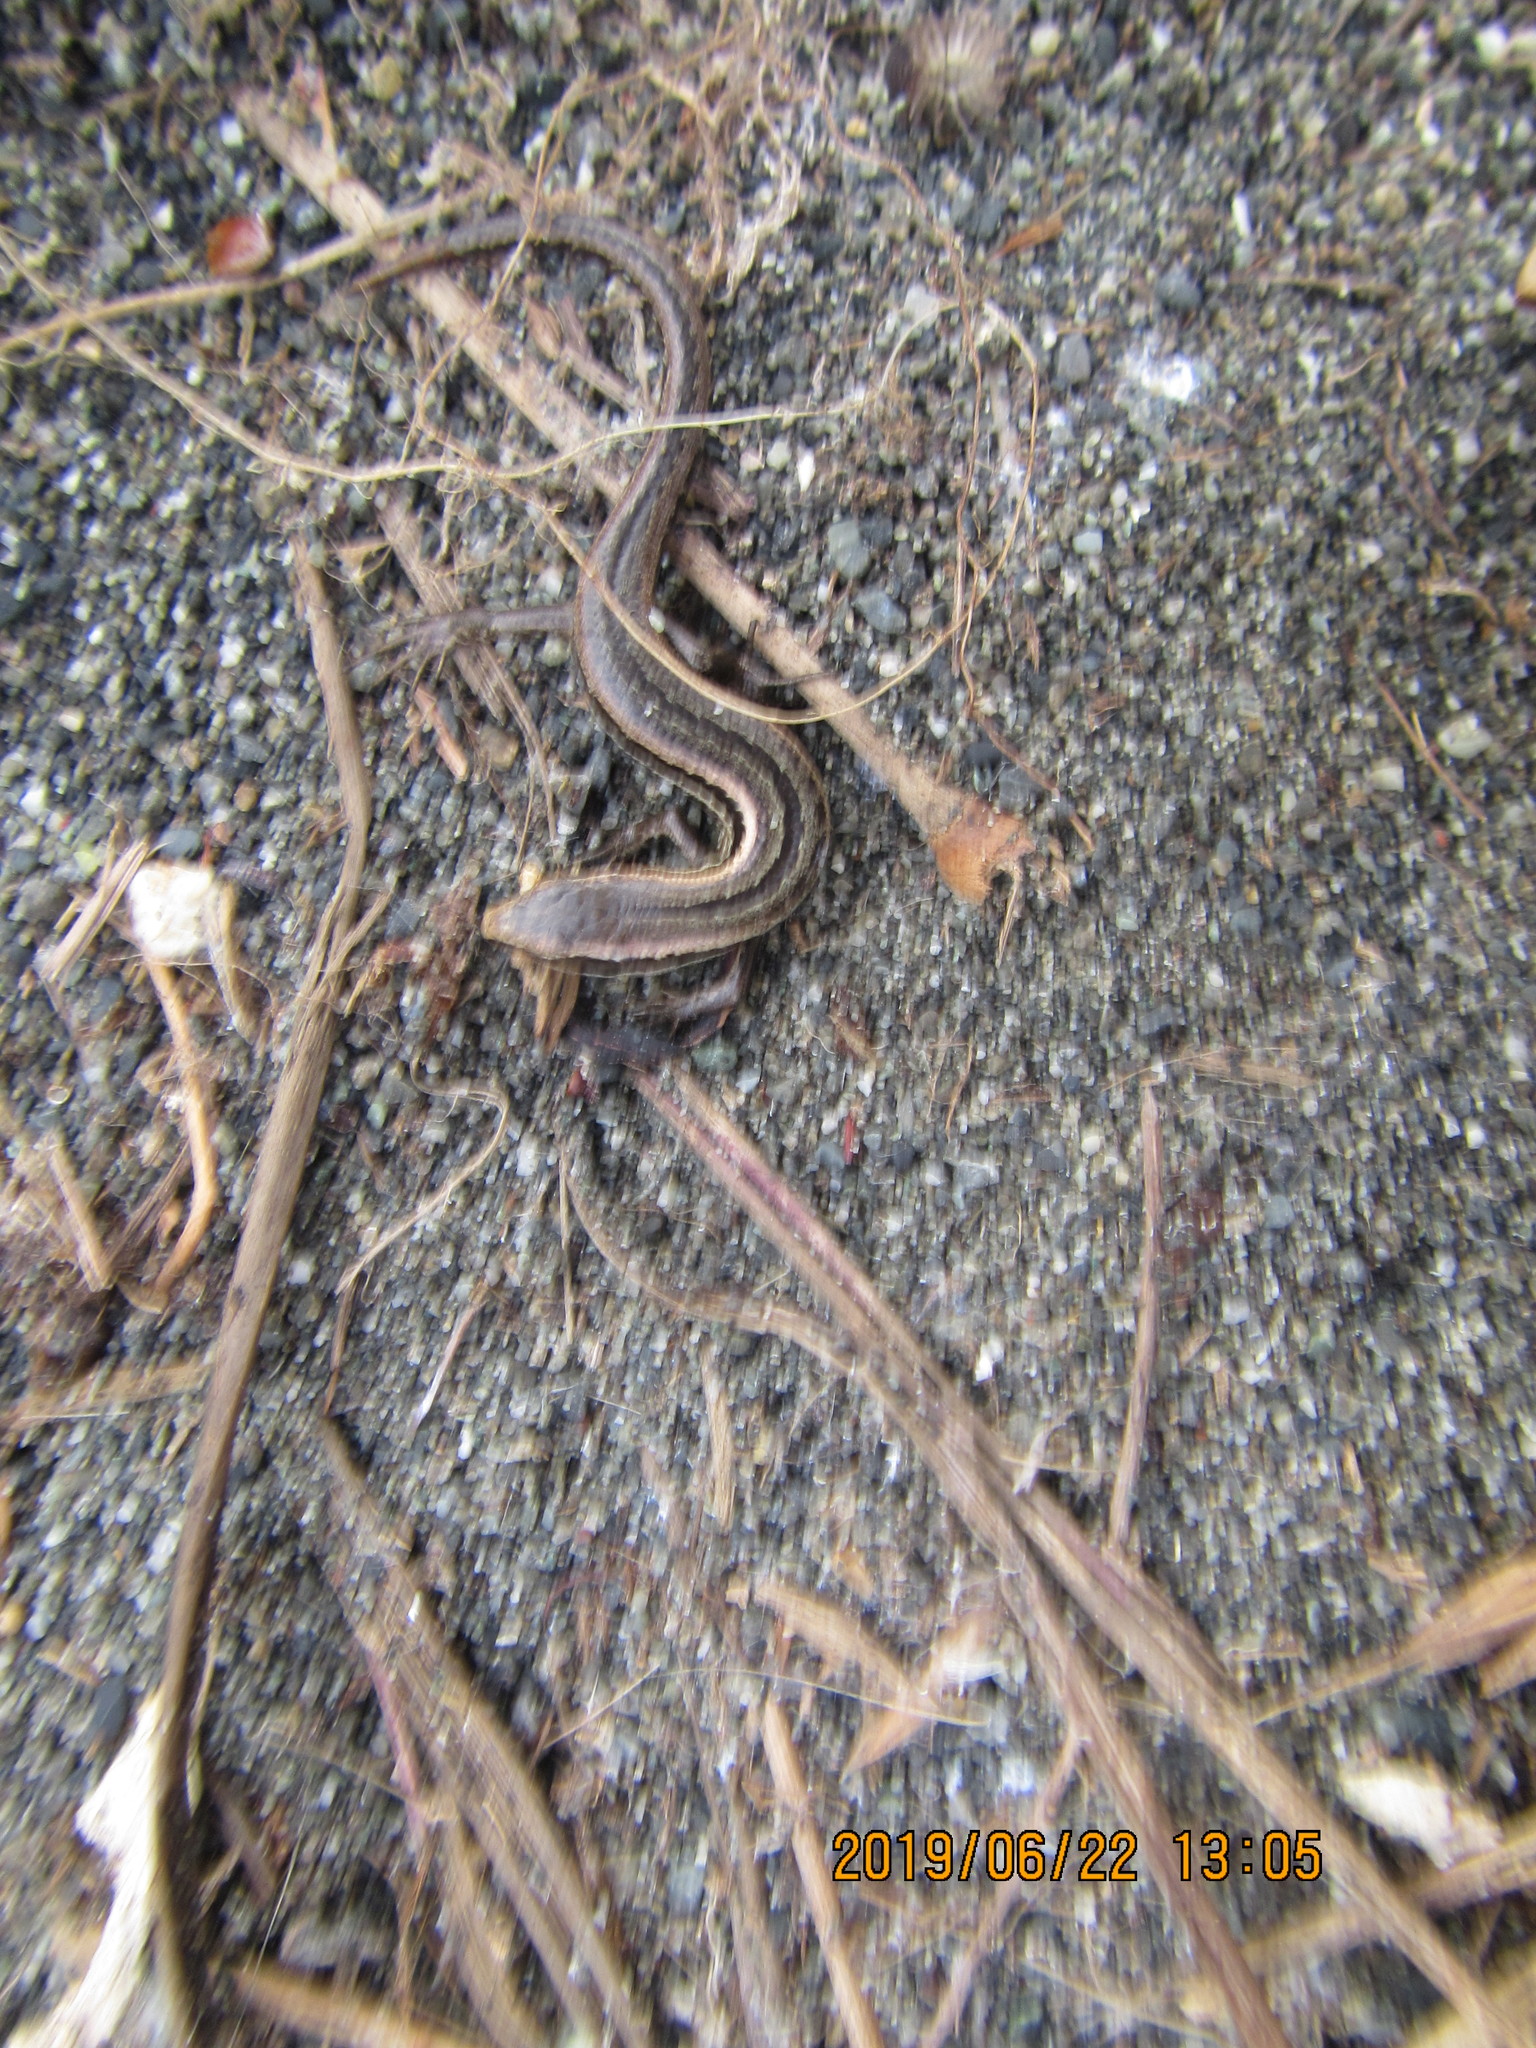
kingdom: Animalia
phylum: Chordata
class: Squamata
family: Scincidae
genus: Oligosoma
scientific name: Oligosoma polychroma
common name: Common new zealand skink
